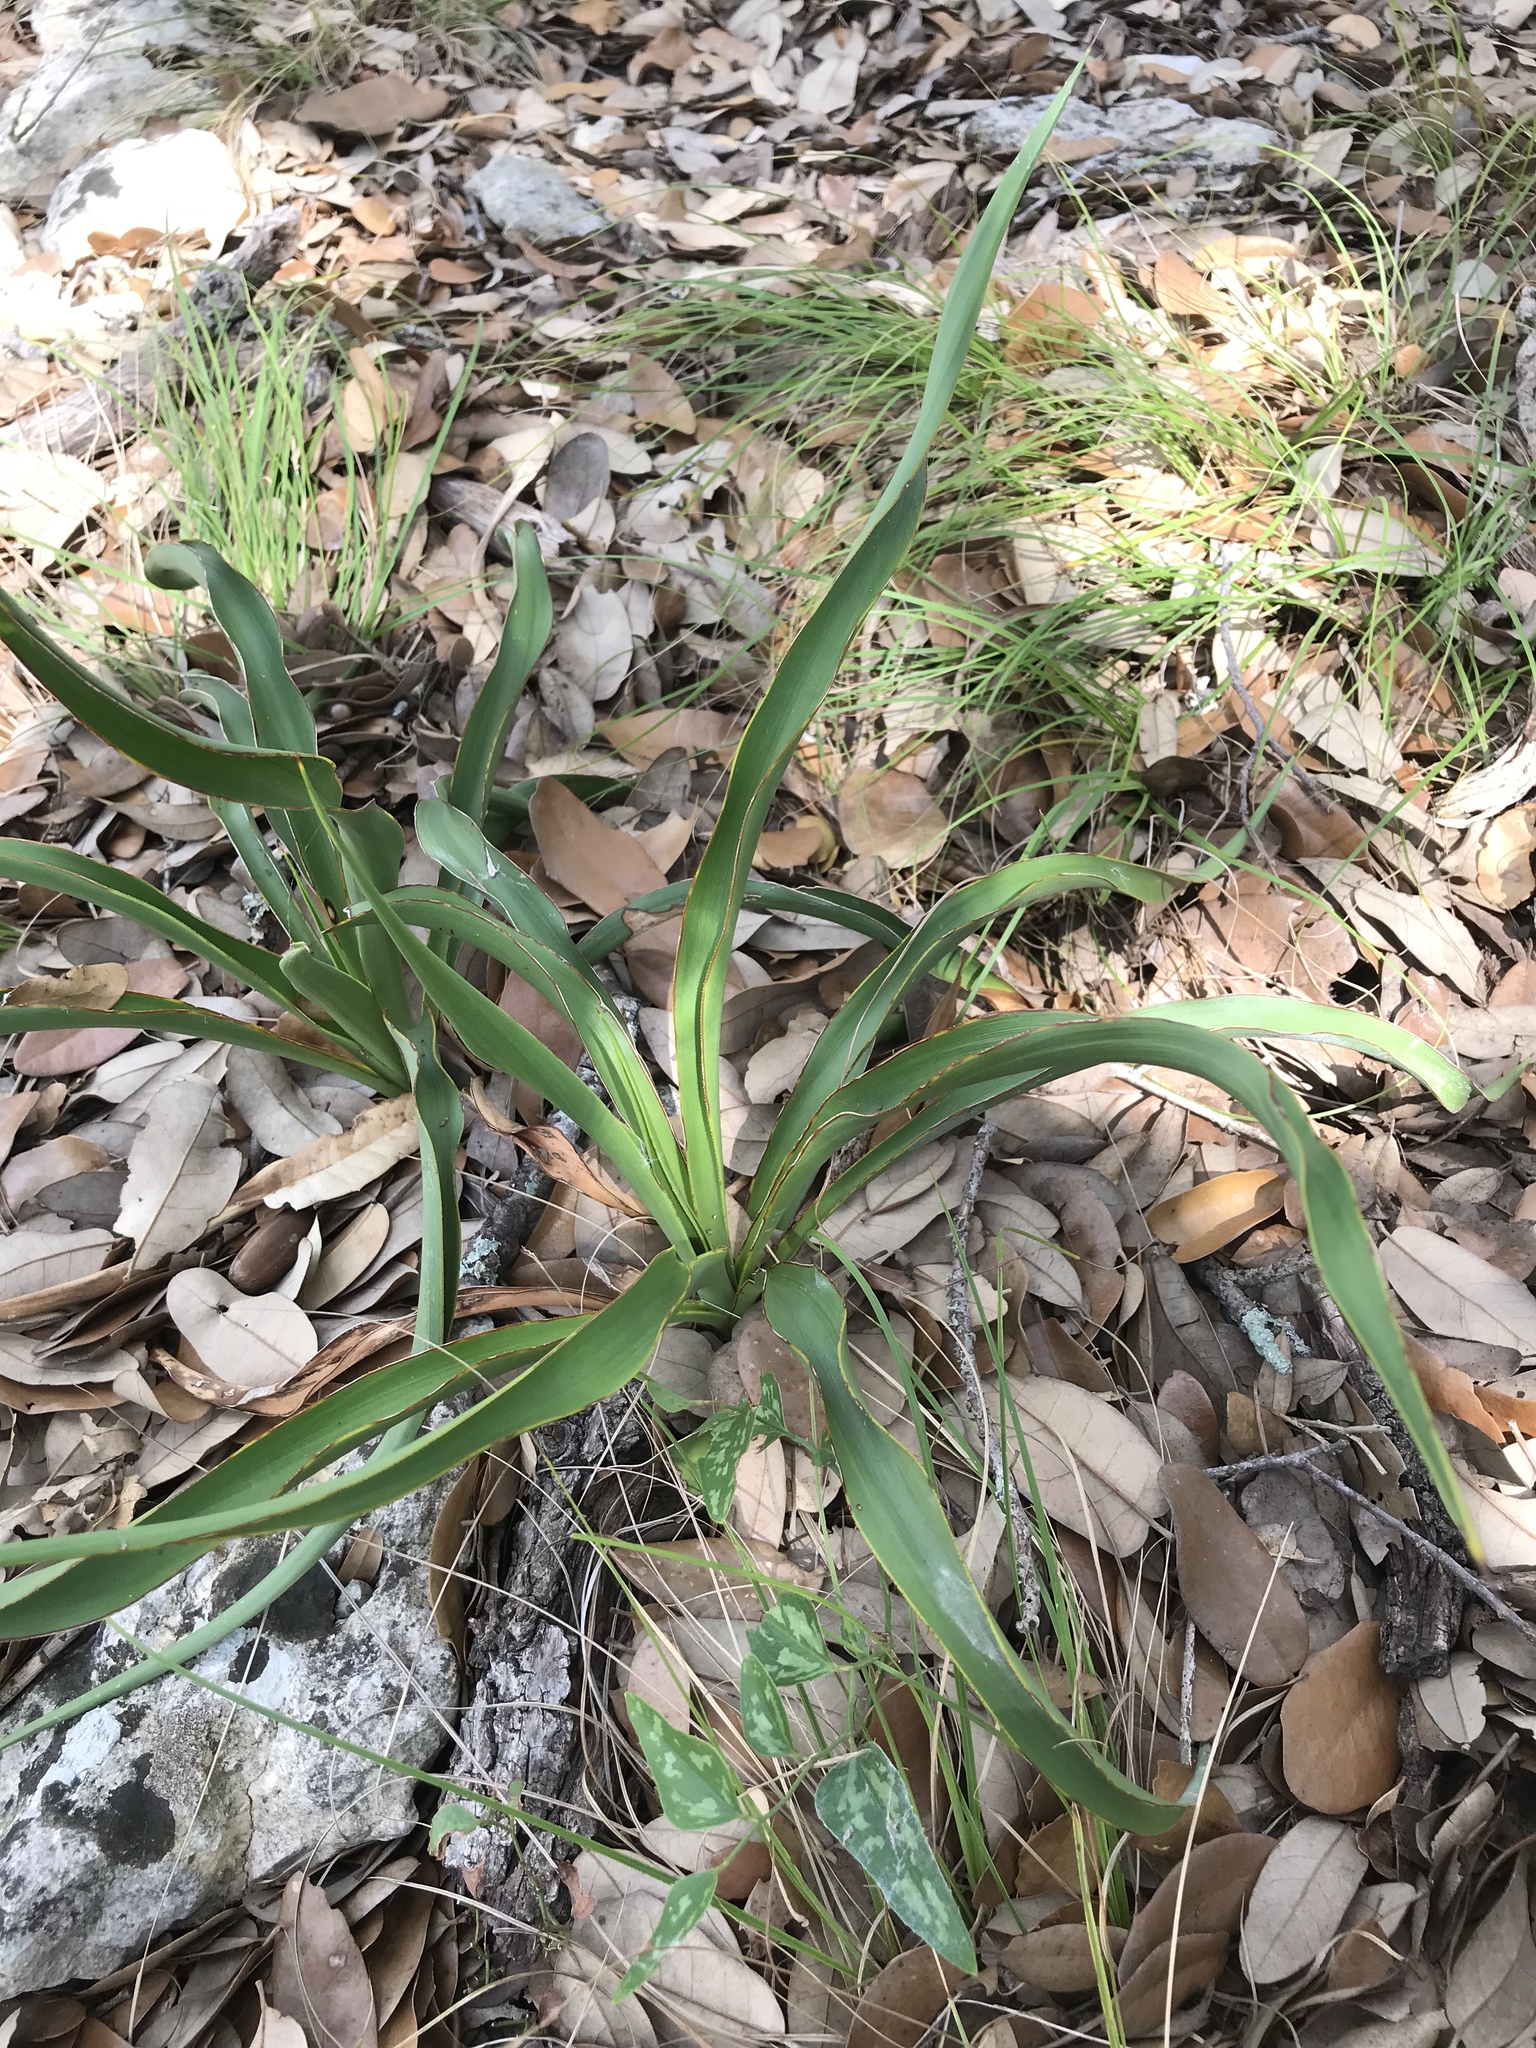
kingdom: Plantae
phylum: Tracheophyta
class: Liliopsida
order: Asparagales
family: Asparagaceae
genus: Yucca
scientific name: Yucca rupicola
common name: Twisted-leaf spanish-dagger
